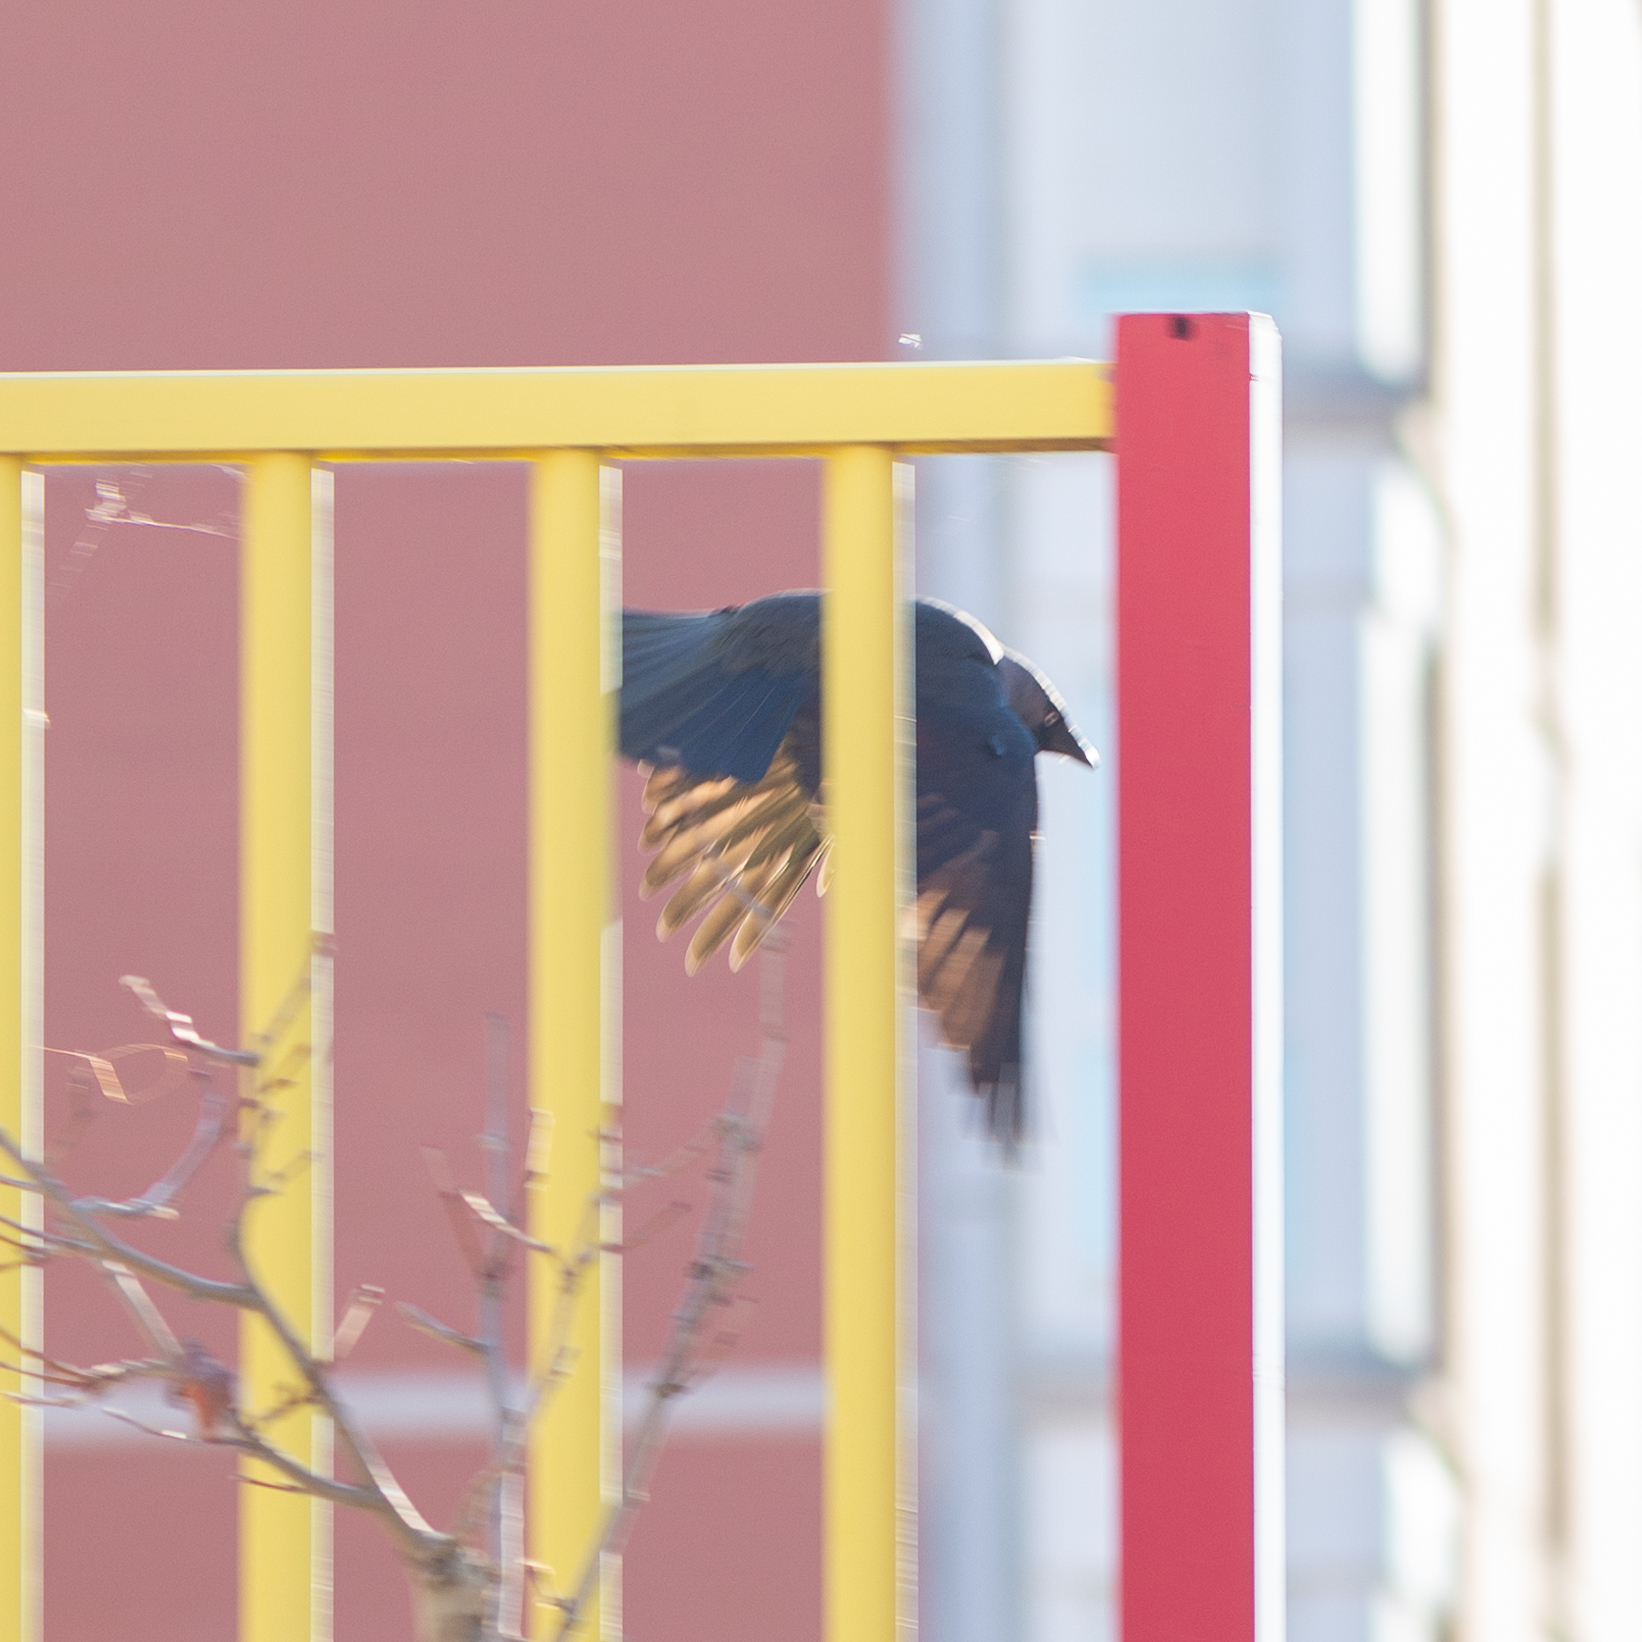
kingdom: Animalia
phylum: Chordata
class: Aves
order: Passeriformes
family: Corvidae
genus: Coloeus
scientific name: Coloeus monedula
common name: Western jackdaw
